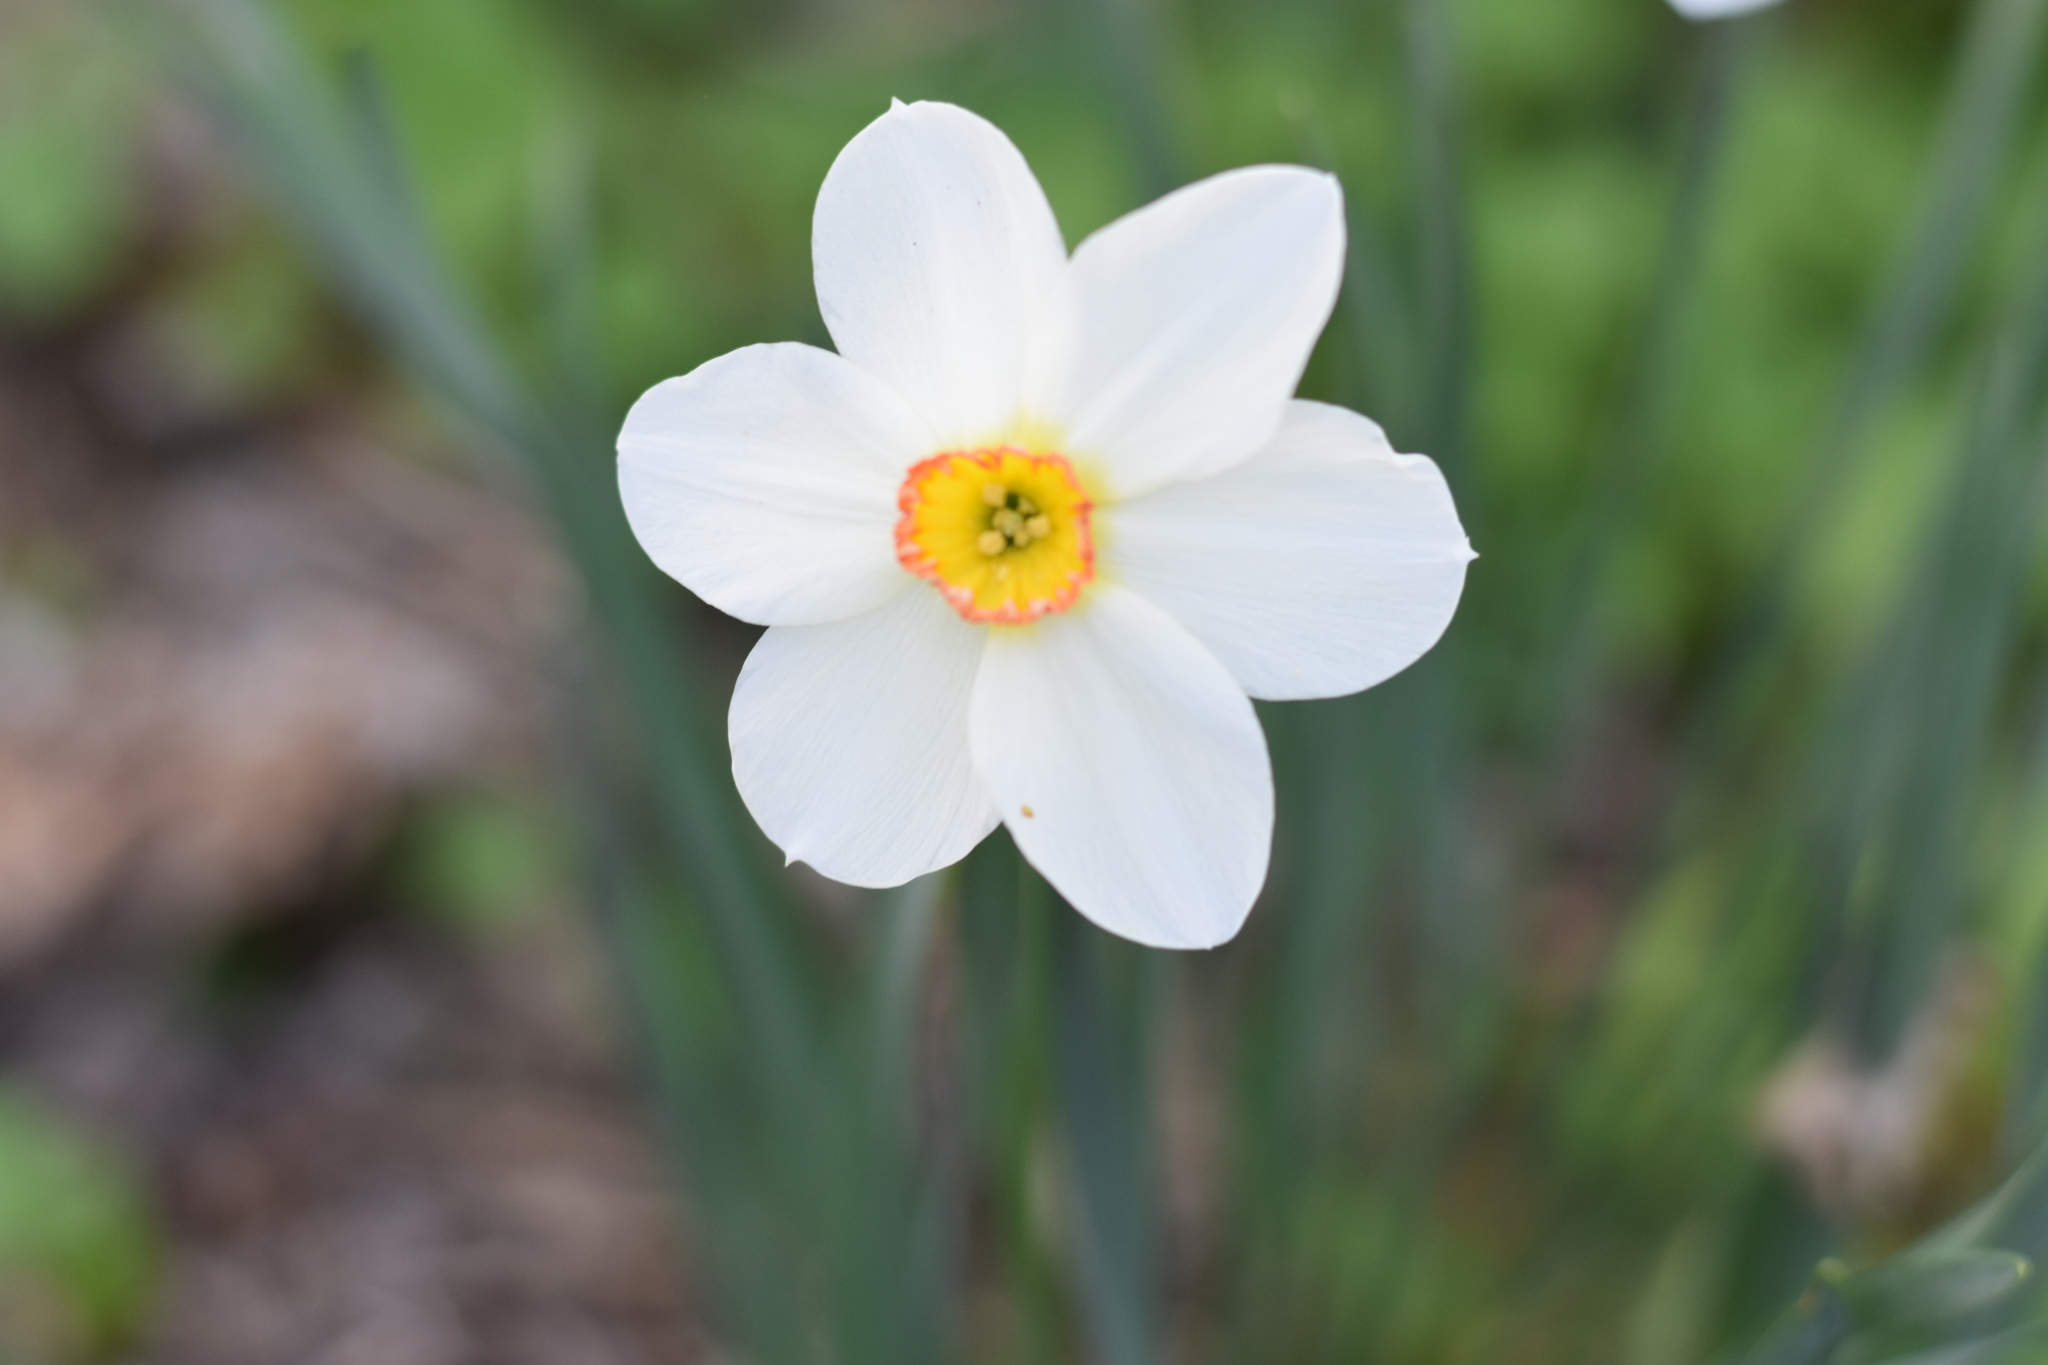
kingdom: Plantae
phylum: Tracheophyta
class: Liliopsida
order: Asparagales
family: Amaryllidaceae
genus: Narcissus
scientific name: Narcissus poeticus
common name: Pheasant's-eye daffodil
